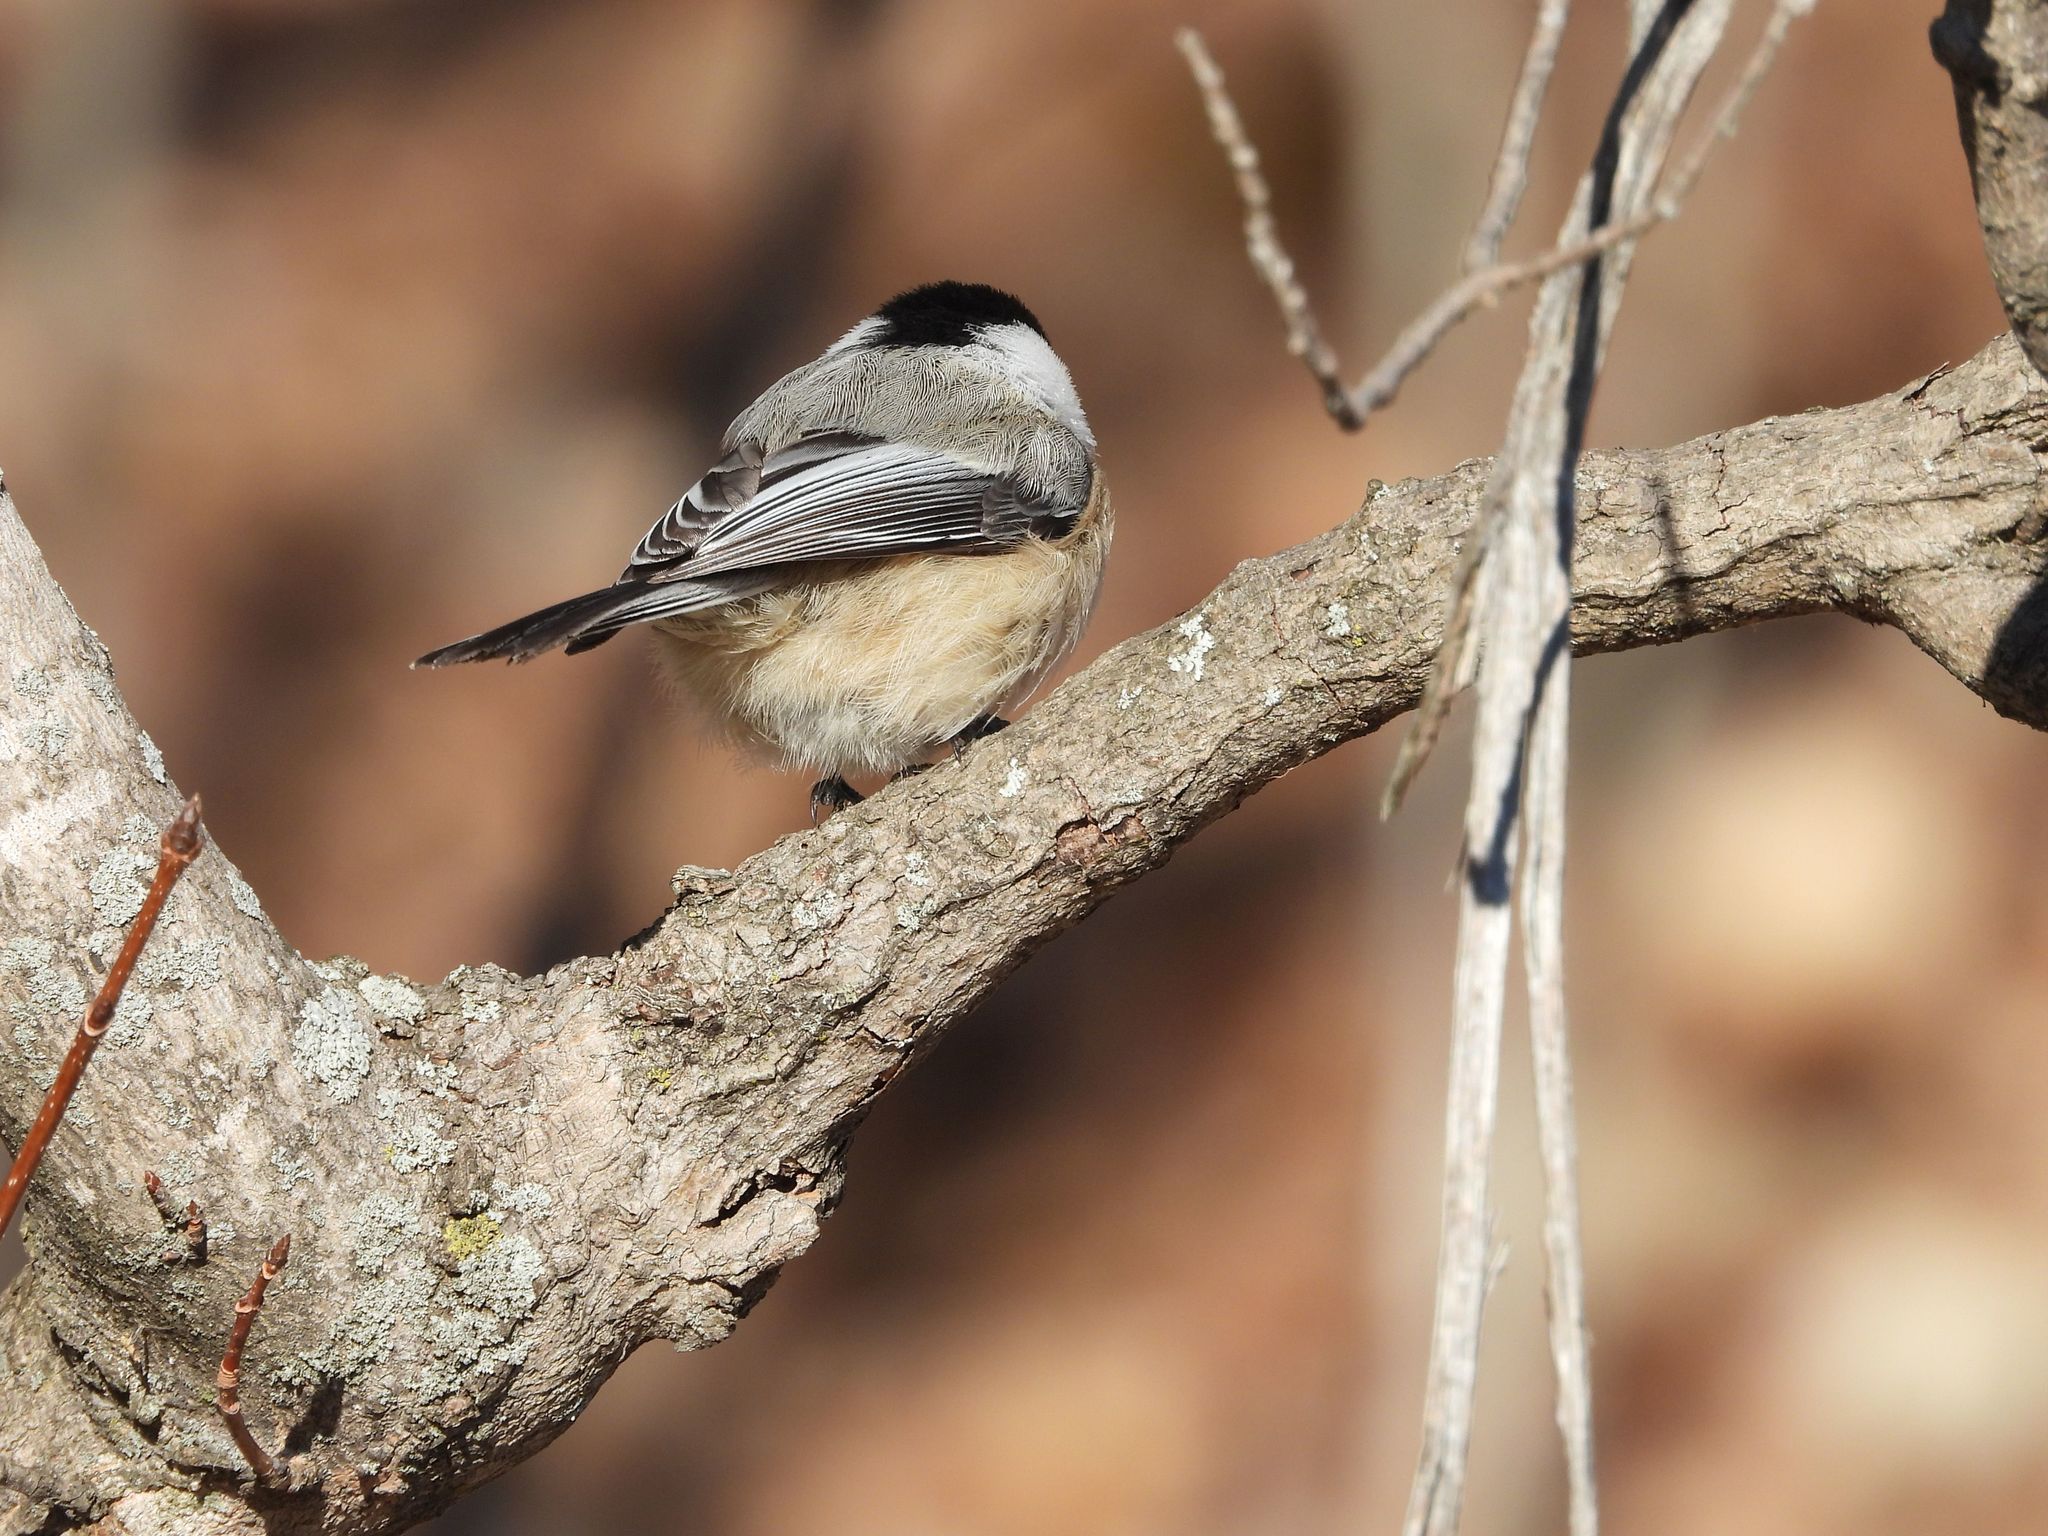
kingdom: Animalia
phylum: Chordata
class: Aves
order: Passeriformes
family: Paridae
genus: Poecile
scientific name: Poecile atricapillus
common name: Black-capped chickadee
